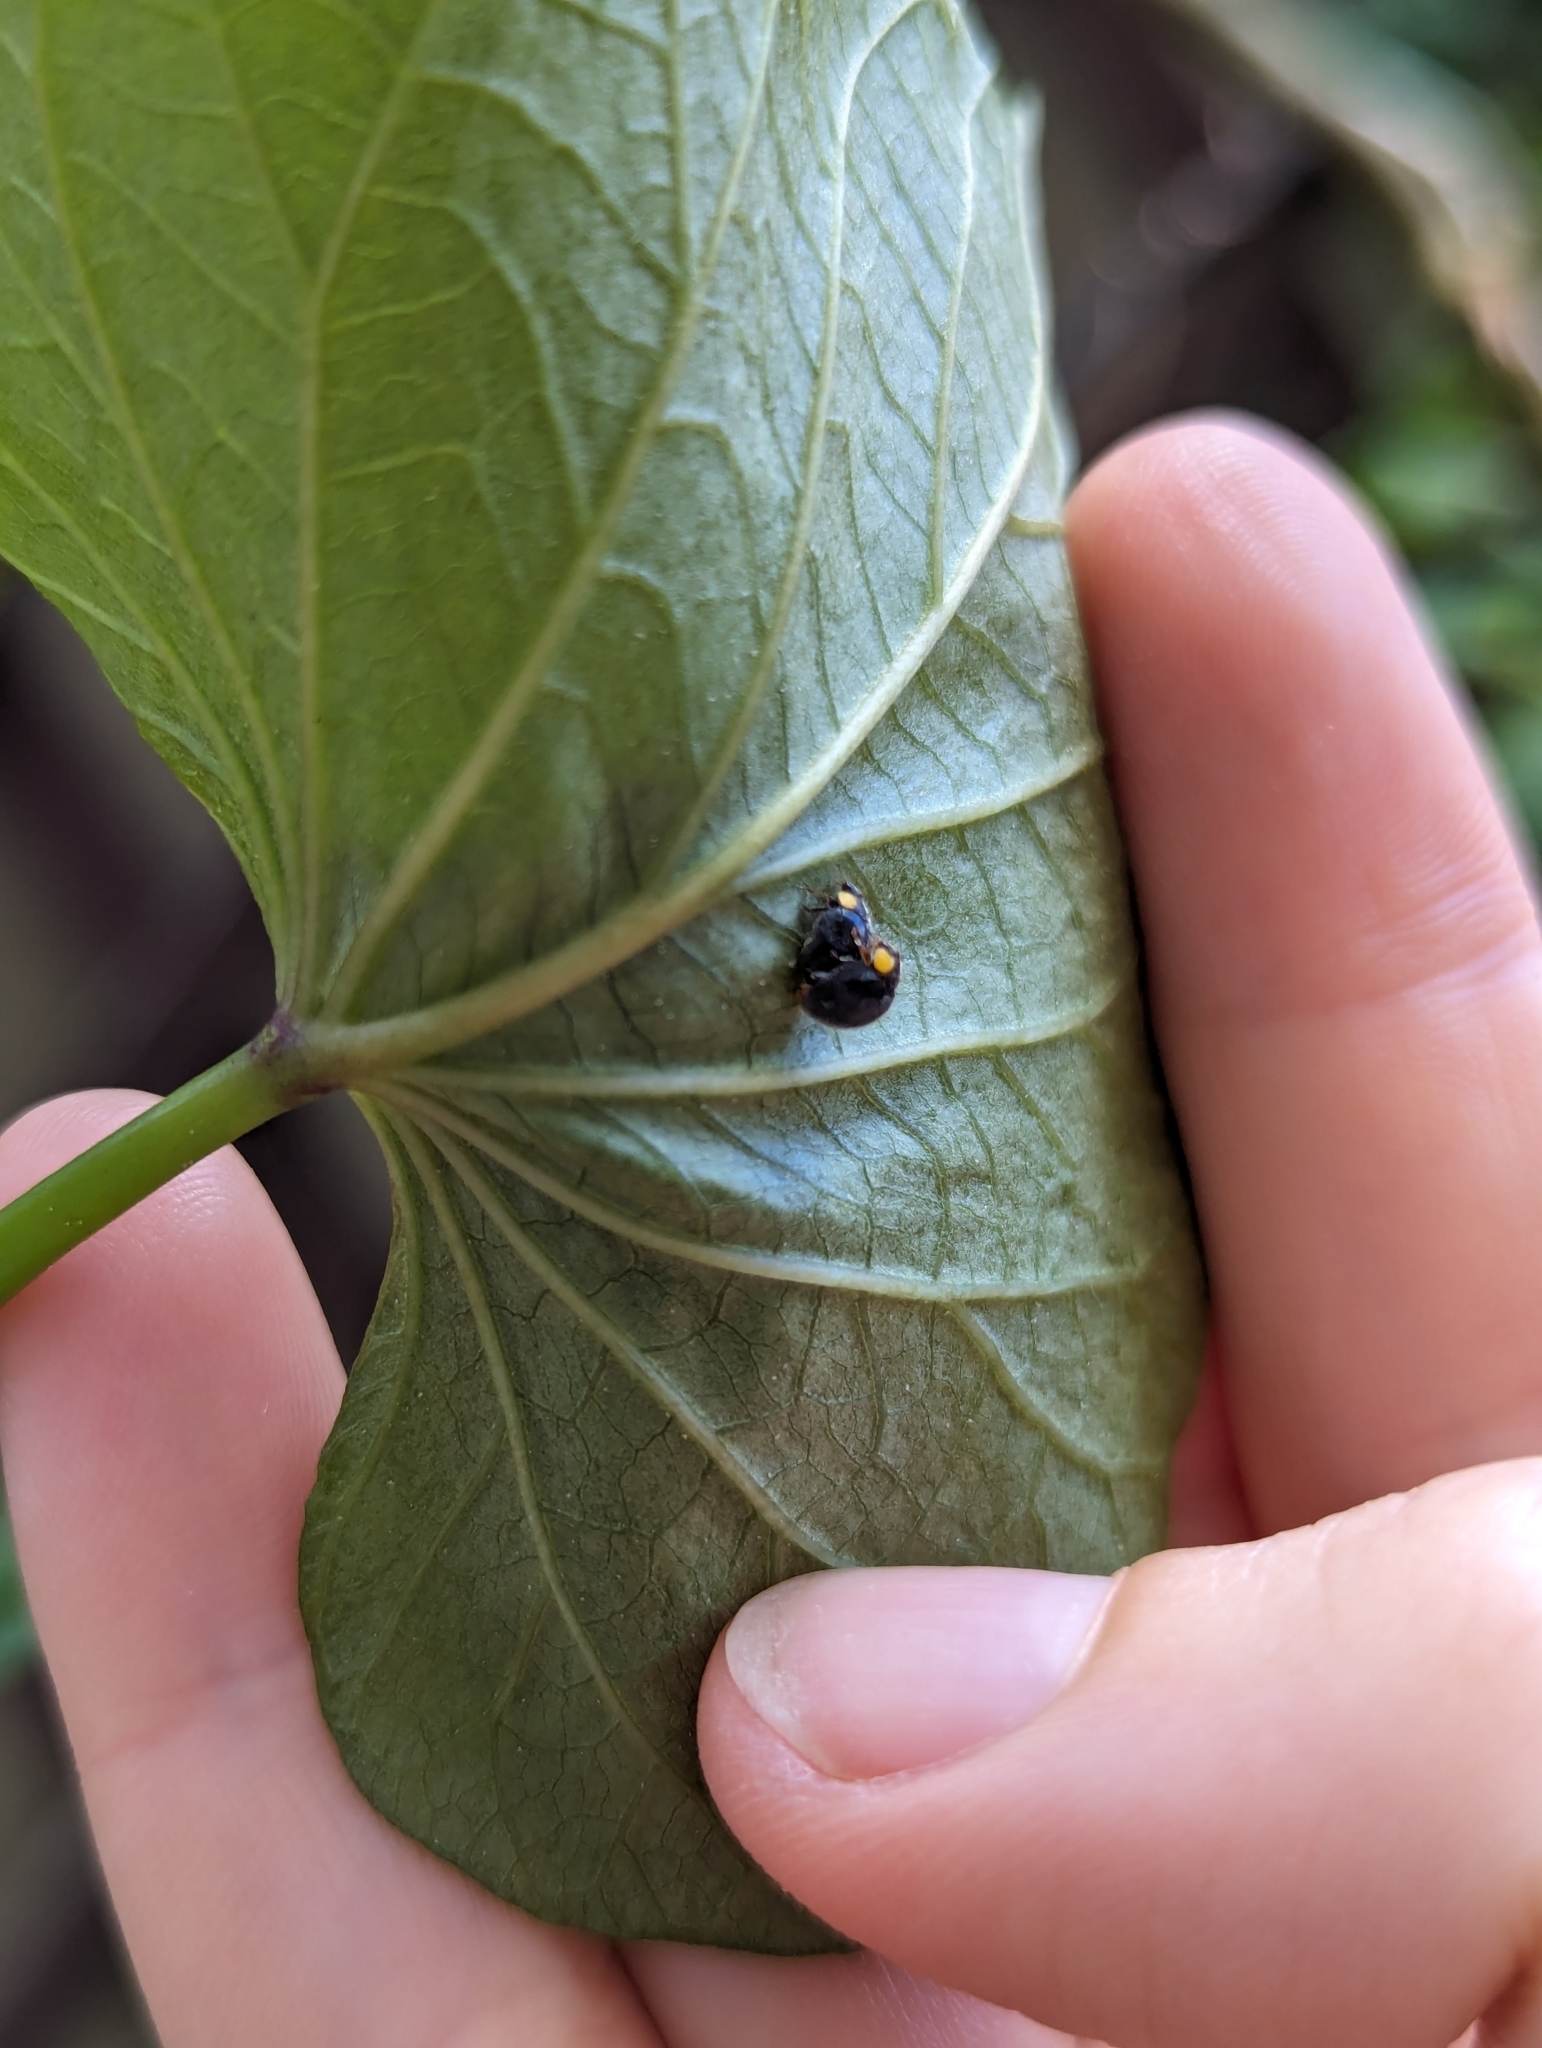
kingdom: Animalia
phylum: Arthropoda
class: Insecta
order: Coleoptera
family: Coccinellidae
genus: Scymnodes
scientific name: Scymnodes lividigaster
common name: Yellowshouldered lady beetle
